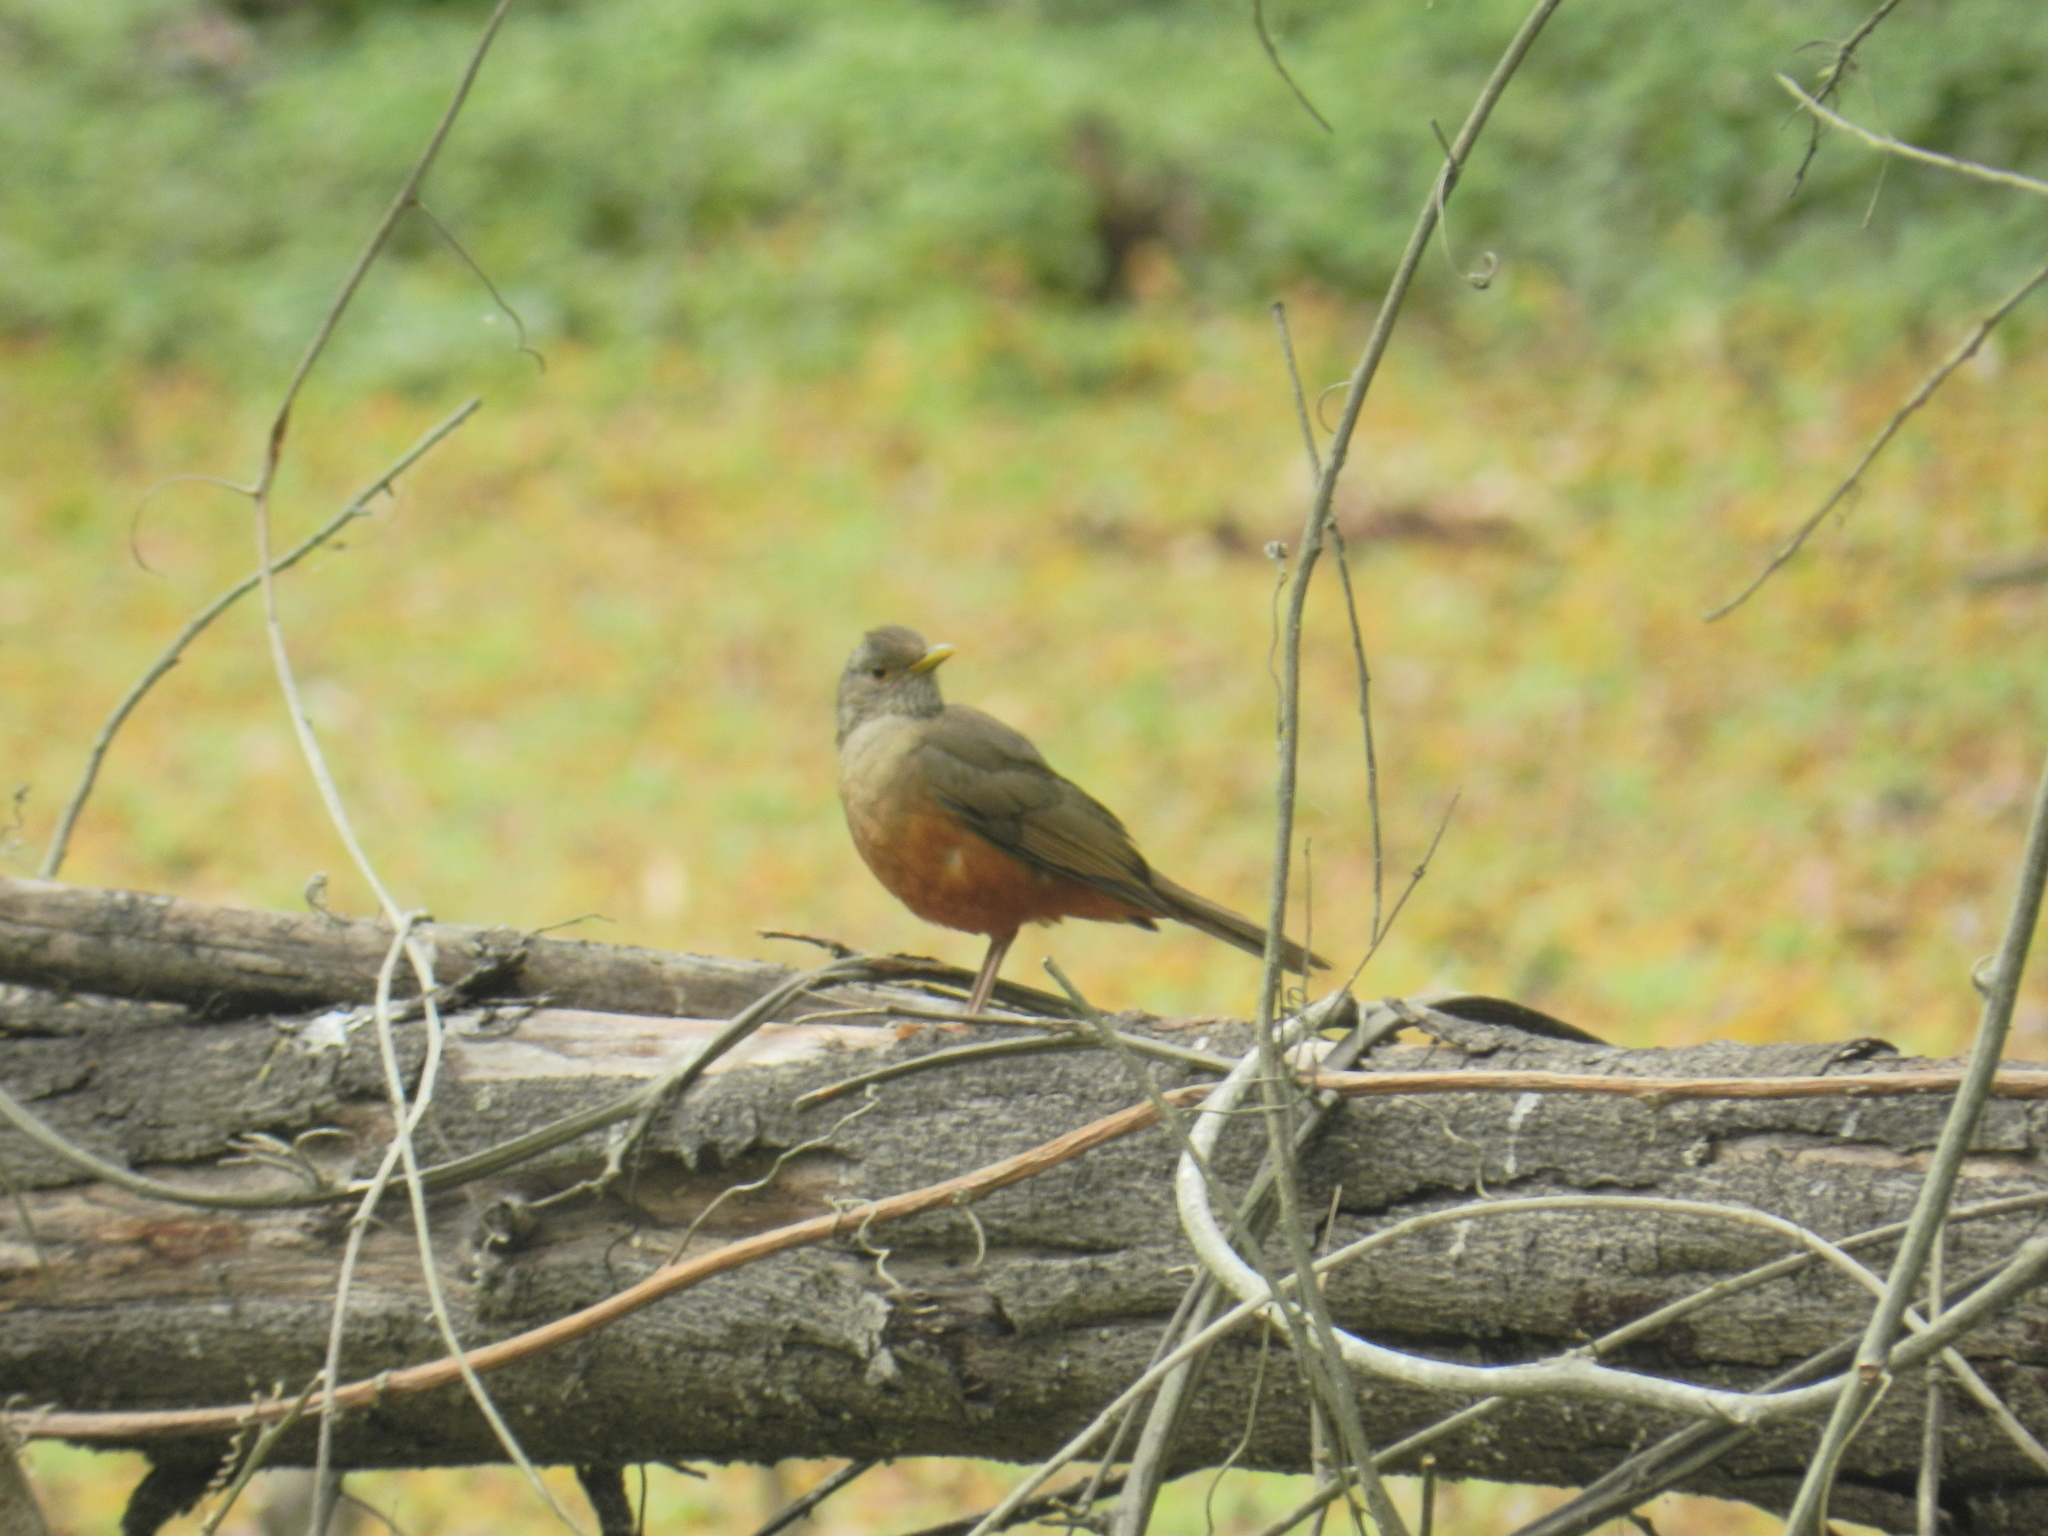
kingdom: Animalia
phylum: Chordata
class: Aves
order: Passeriformes
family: Turdidae
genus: Turdus
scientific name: Turdus rufiventris
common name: Rufous-bellied thrush
